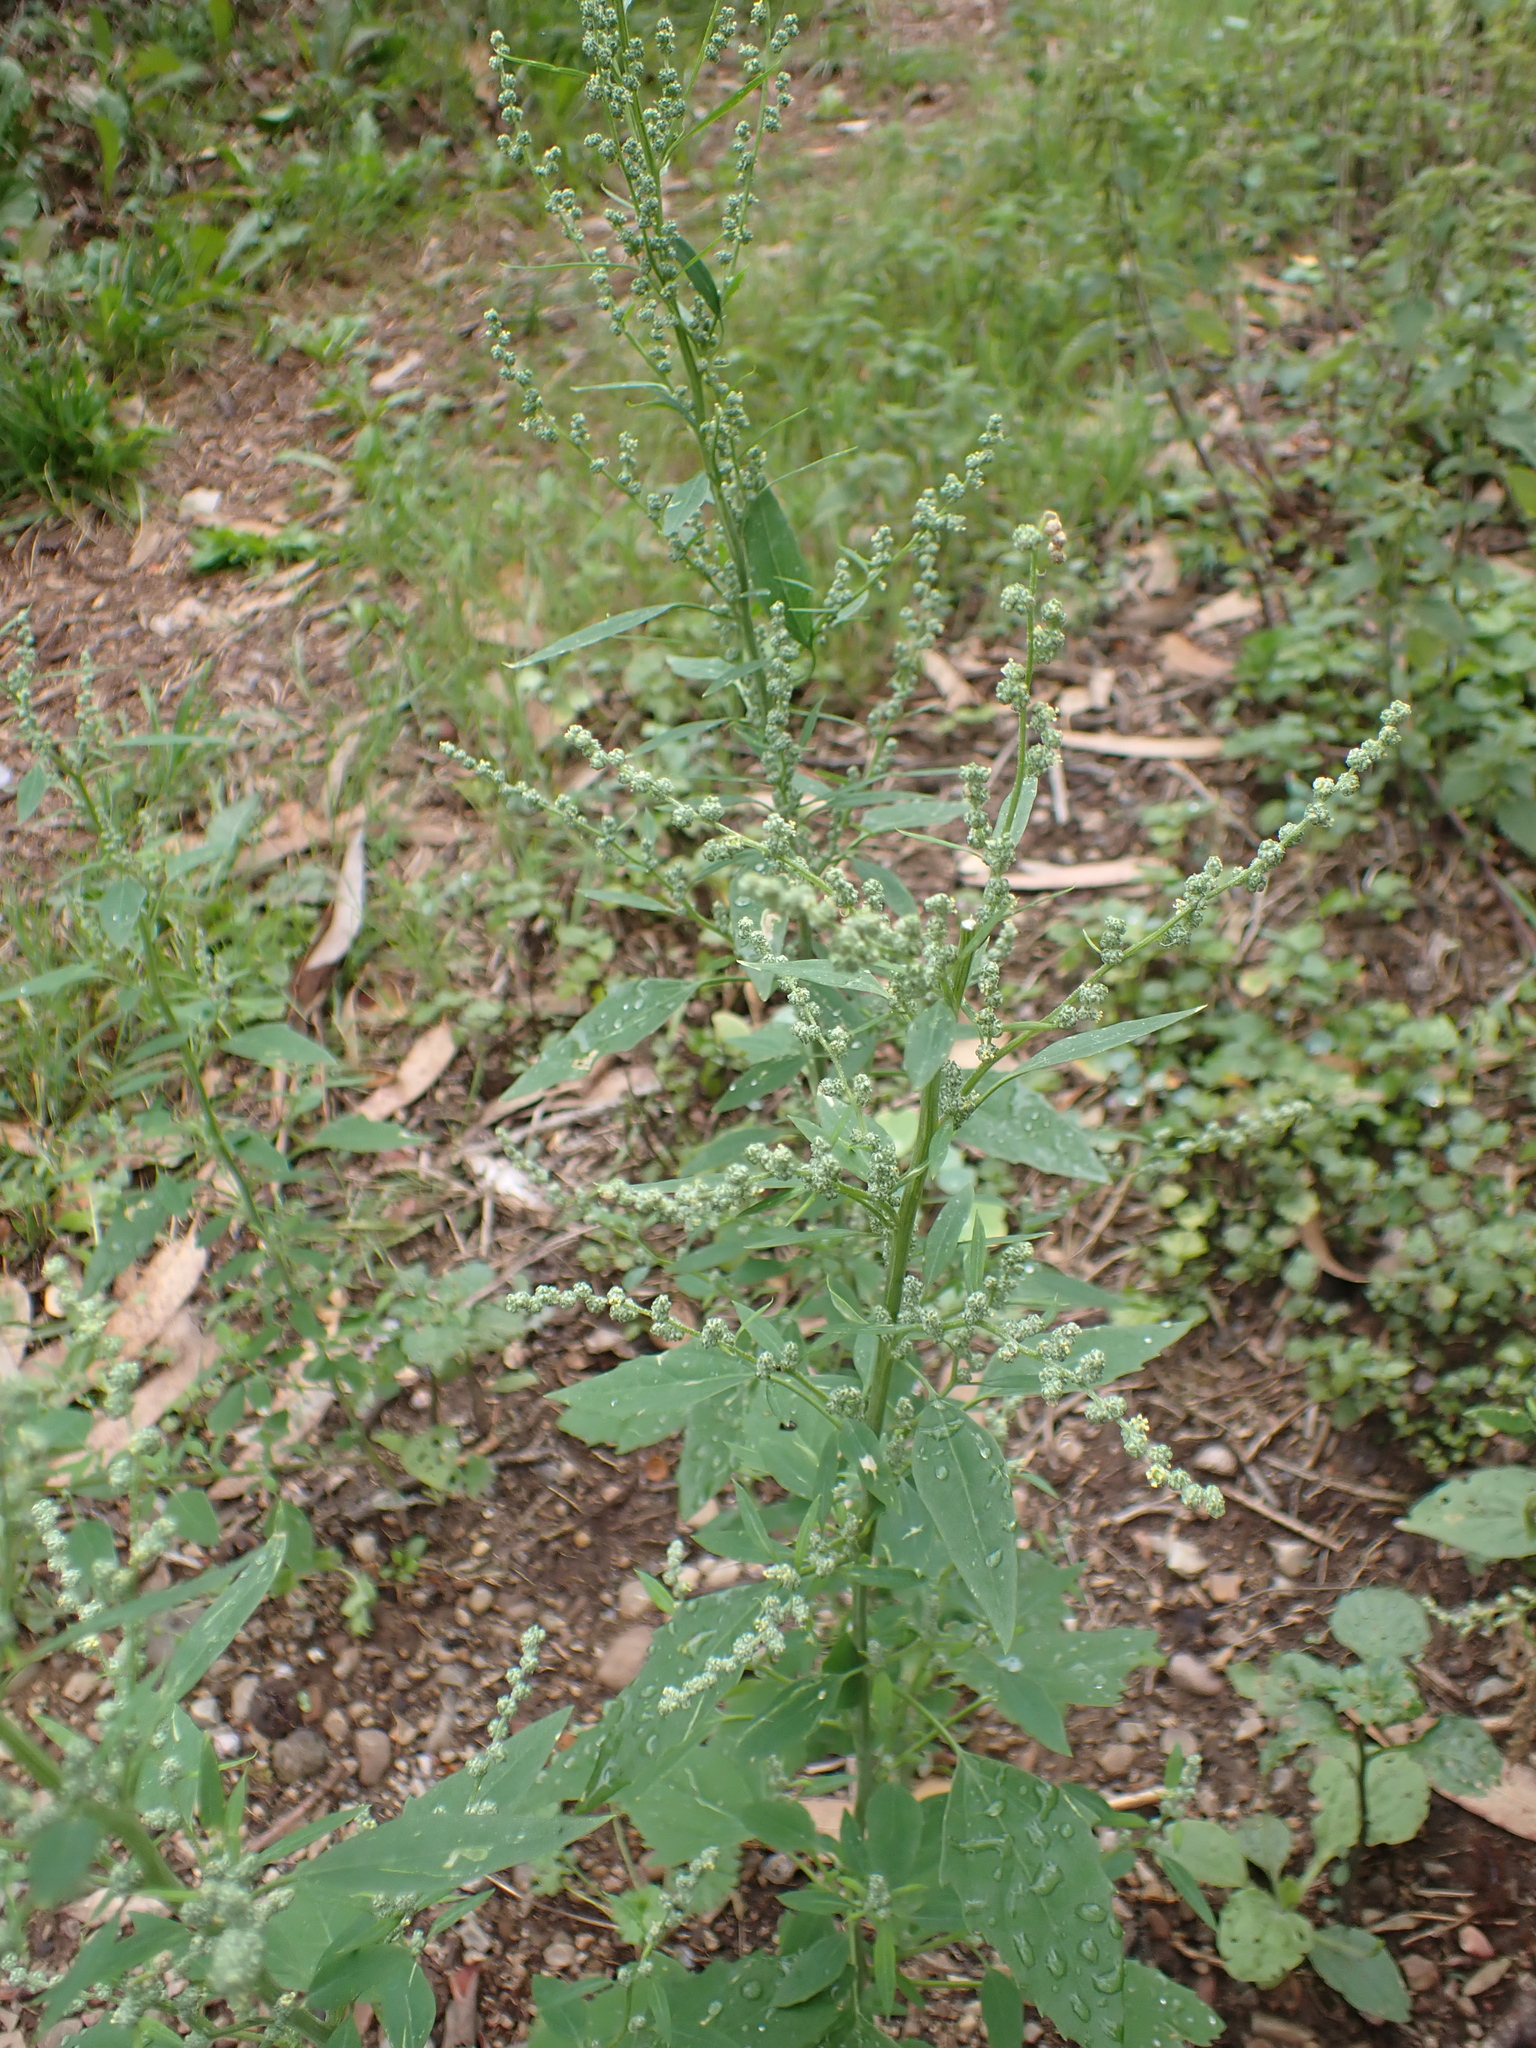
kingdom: Plantae
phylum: Tracheophyta
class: Magnoliopsida
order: Caryophyllales
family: Amaranthaceae
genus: Chenopodium
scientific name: Chenopodium album
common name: Fat-hen
